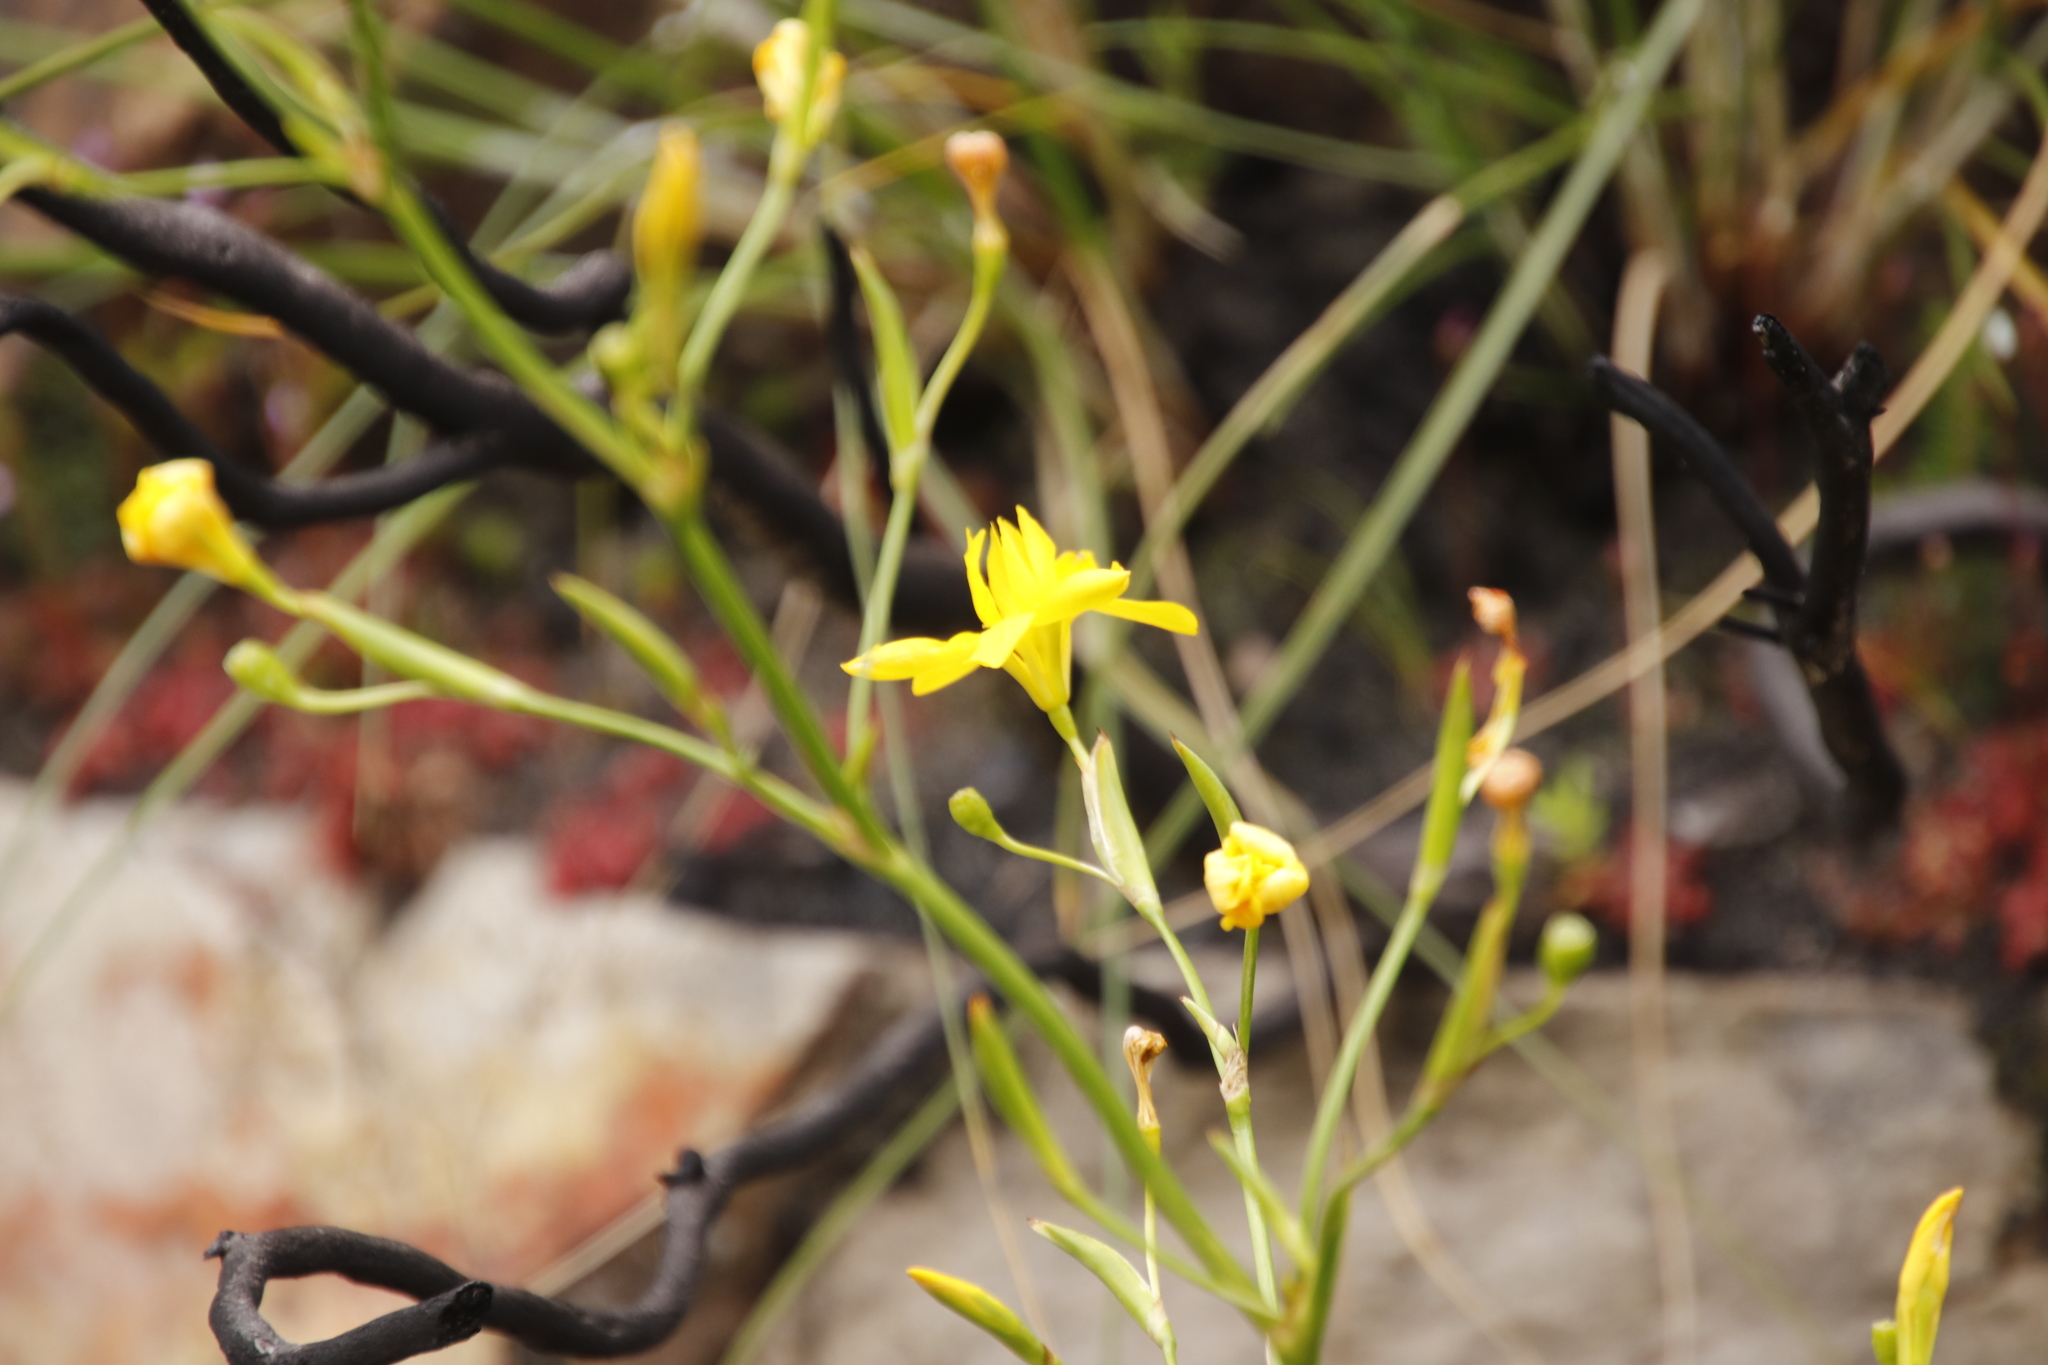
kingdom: Plantae
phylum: Tracheophyta
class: Liliopsida
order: Asparagales
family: Iridaceae
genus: Moraea
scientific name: Moraea ramosissima
